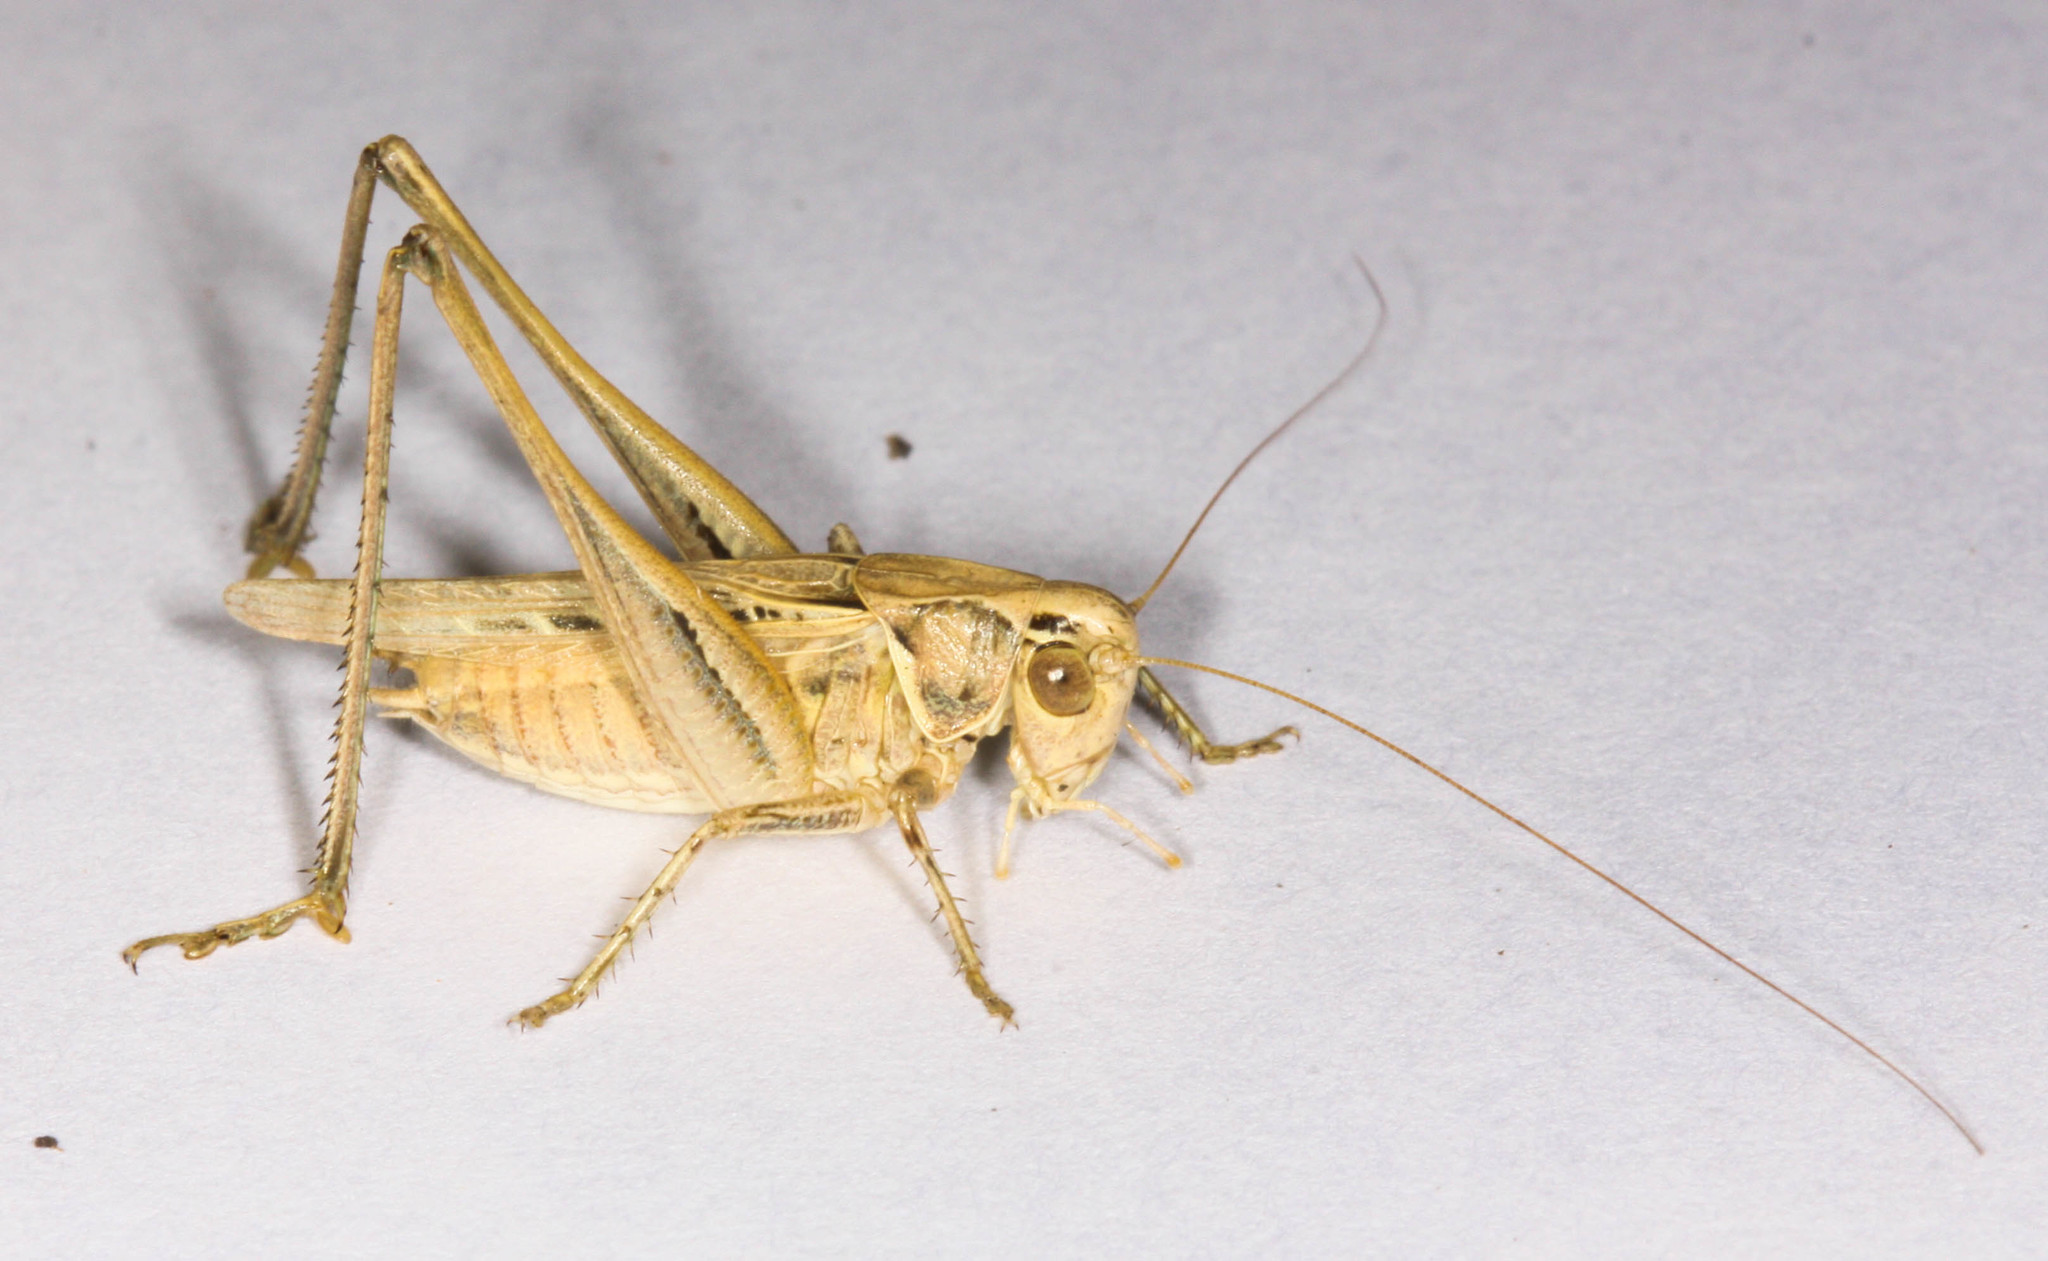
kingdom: Animalia
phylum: Arthropoda
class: Insecta
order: Orthoptera
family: Tettigoniidae
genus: Tessellana
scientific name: Tessellana tessellata
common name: Grasshopper
